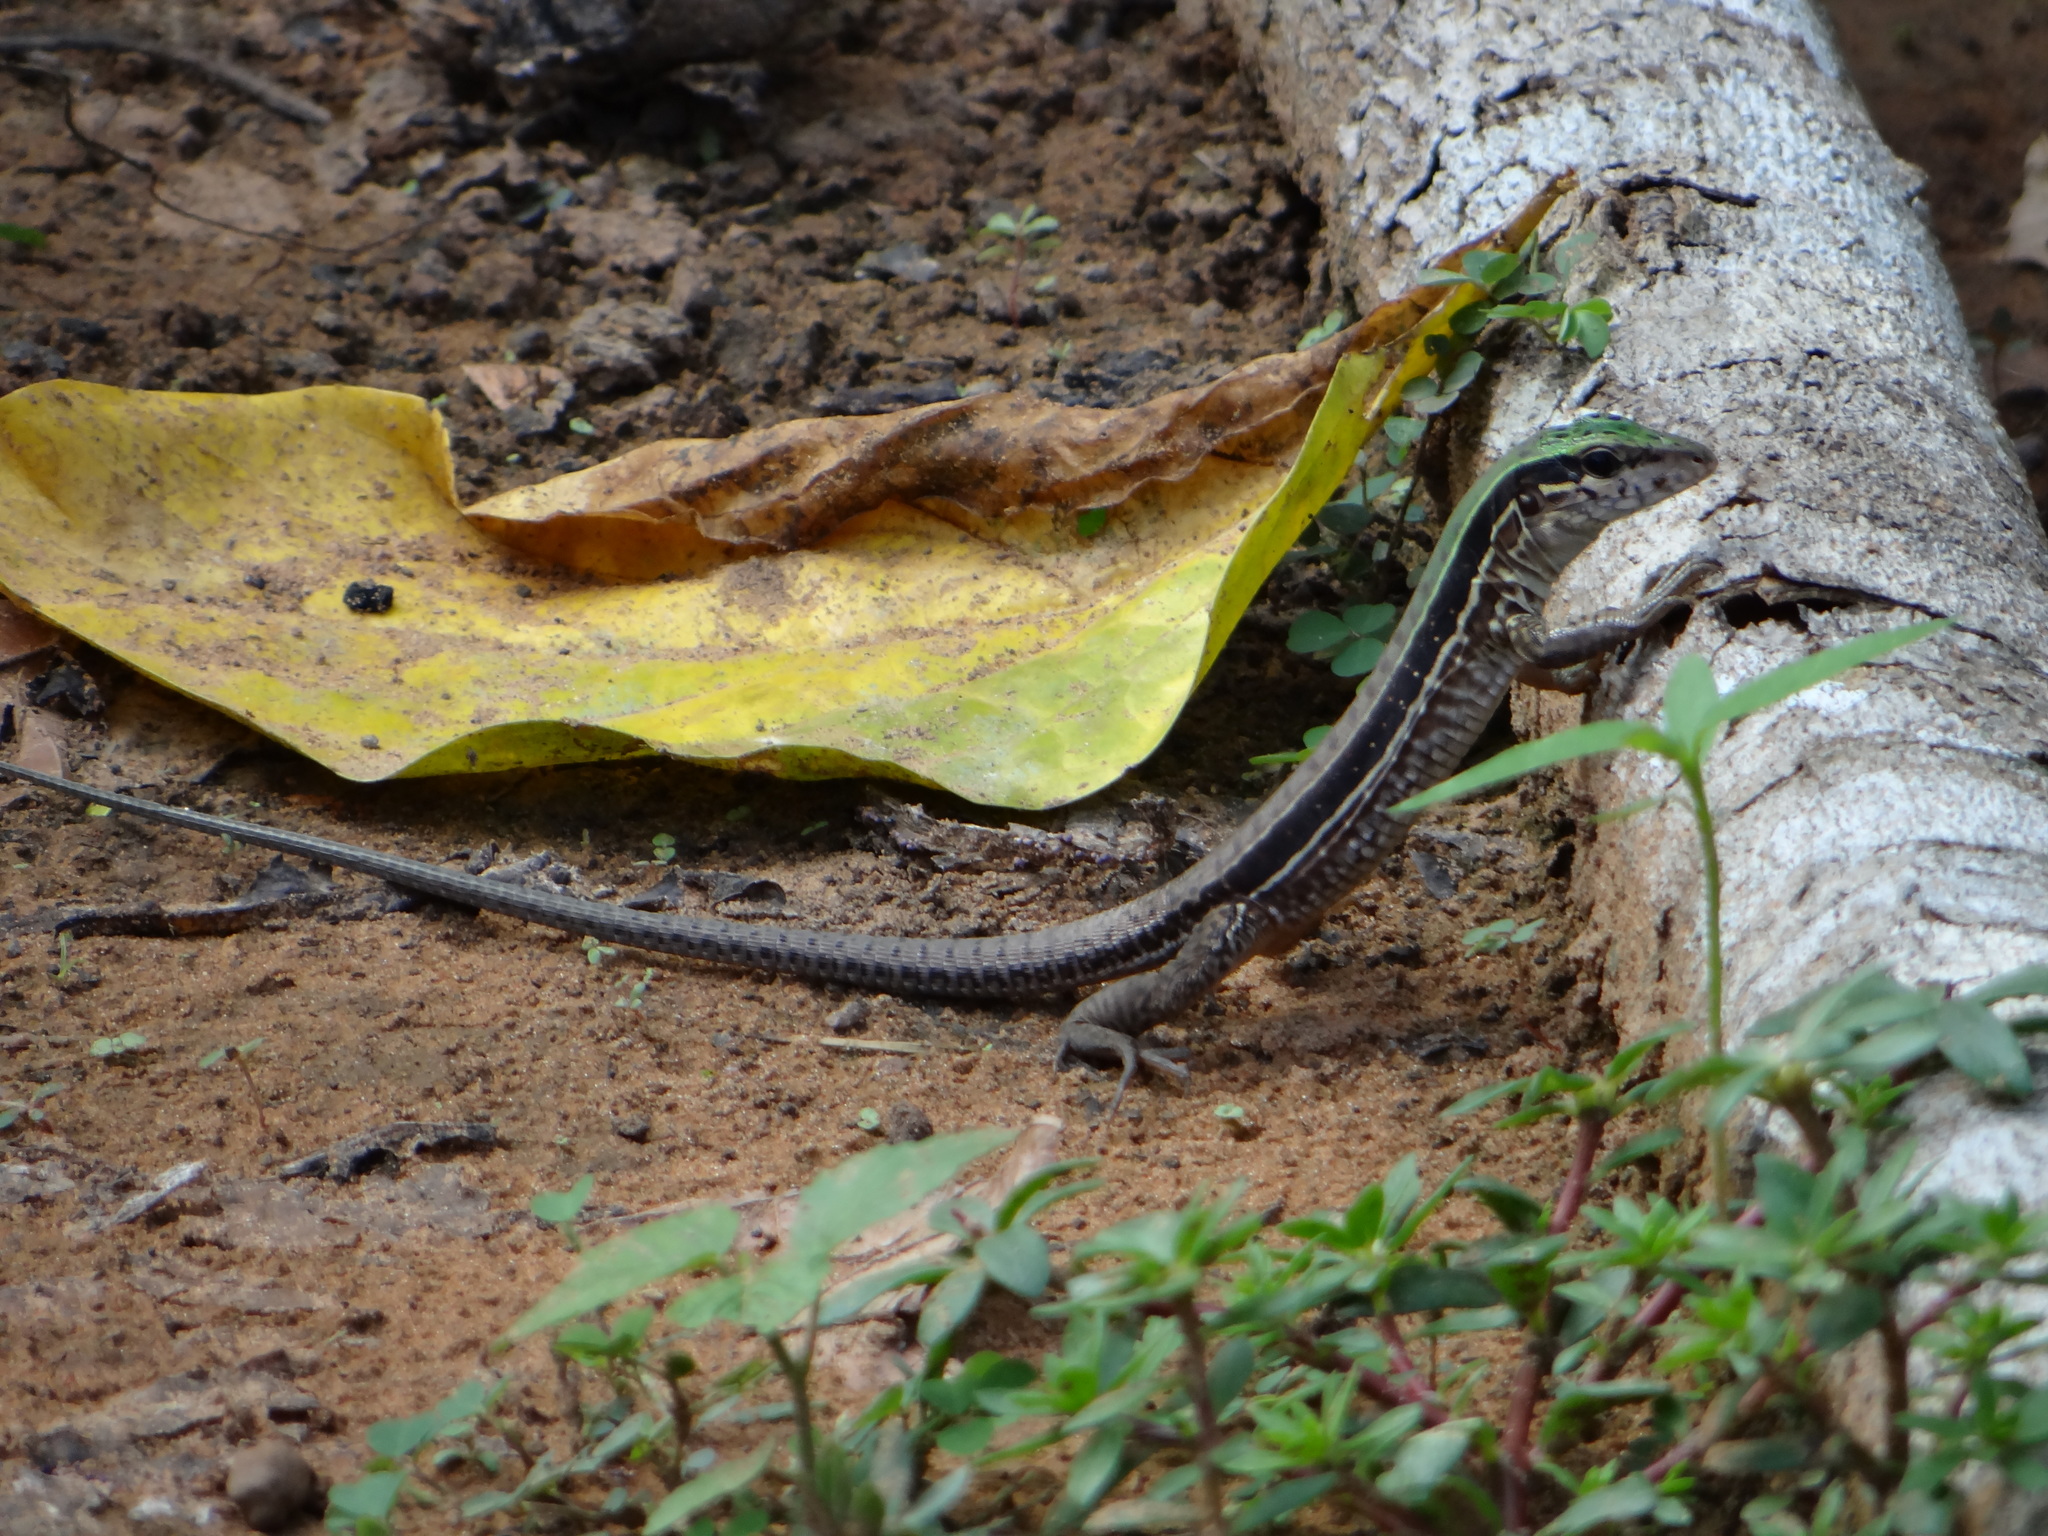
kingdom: Animalia
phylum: Chordata
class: Squamata
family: Teiidae
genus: Ameiva
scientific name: Ameiva ameiva
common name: Giant ameiva
